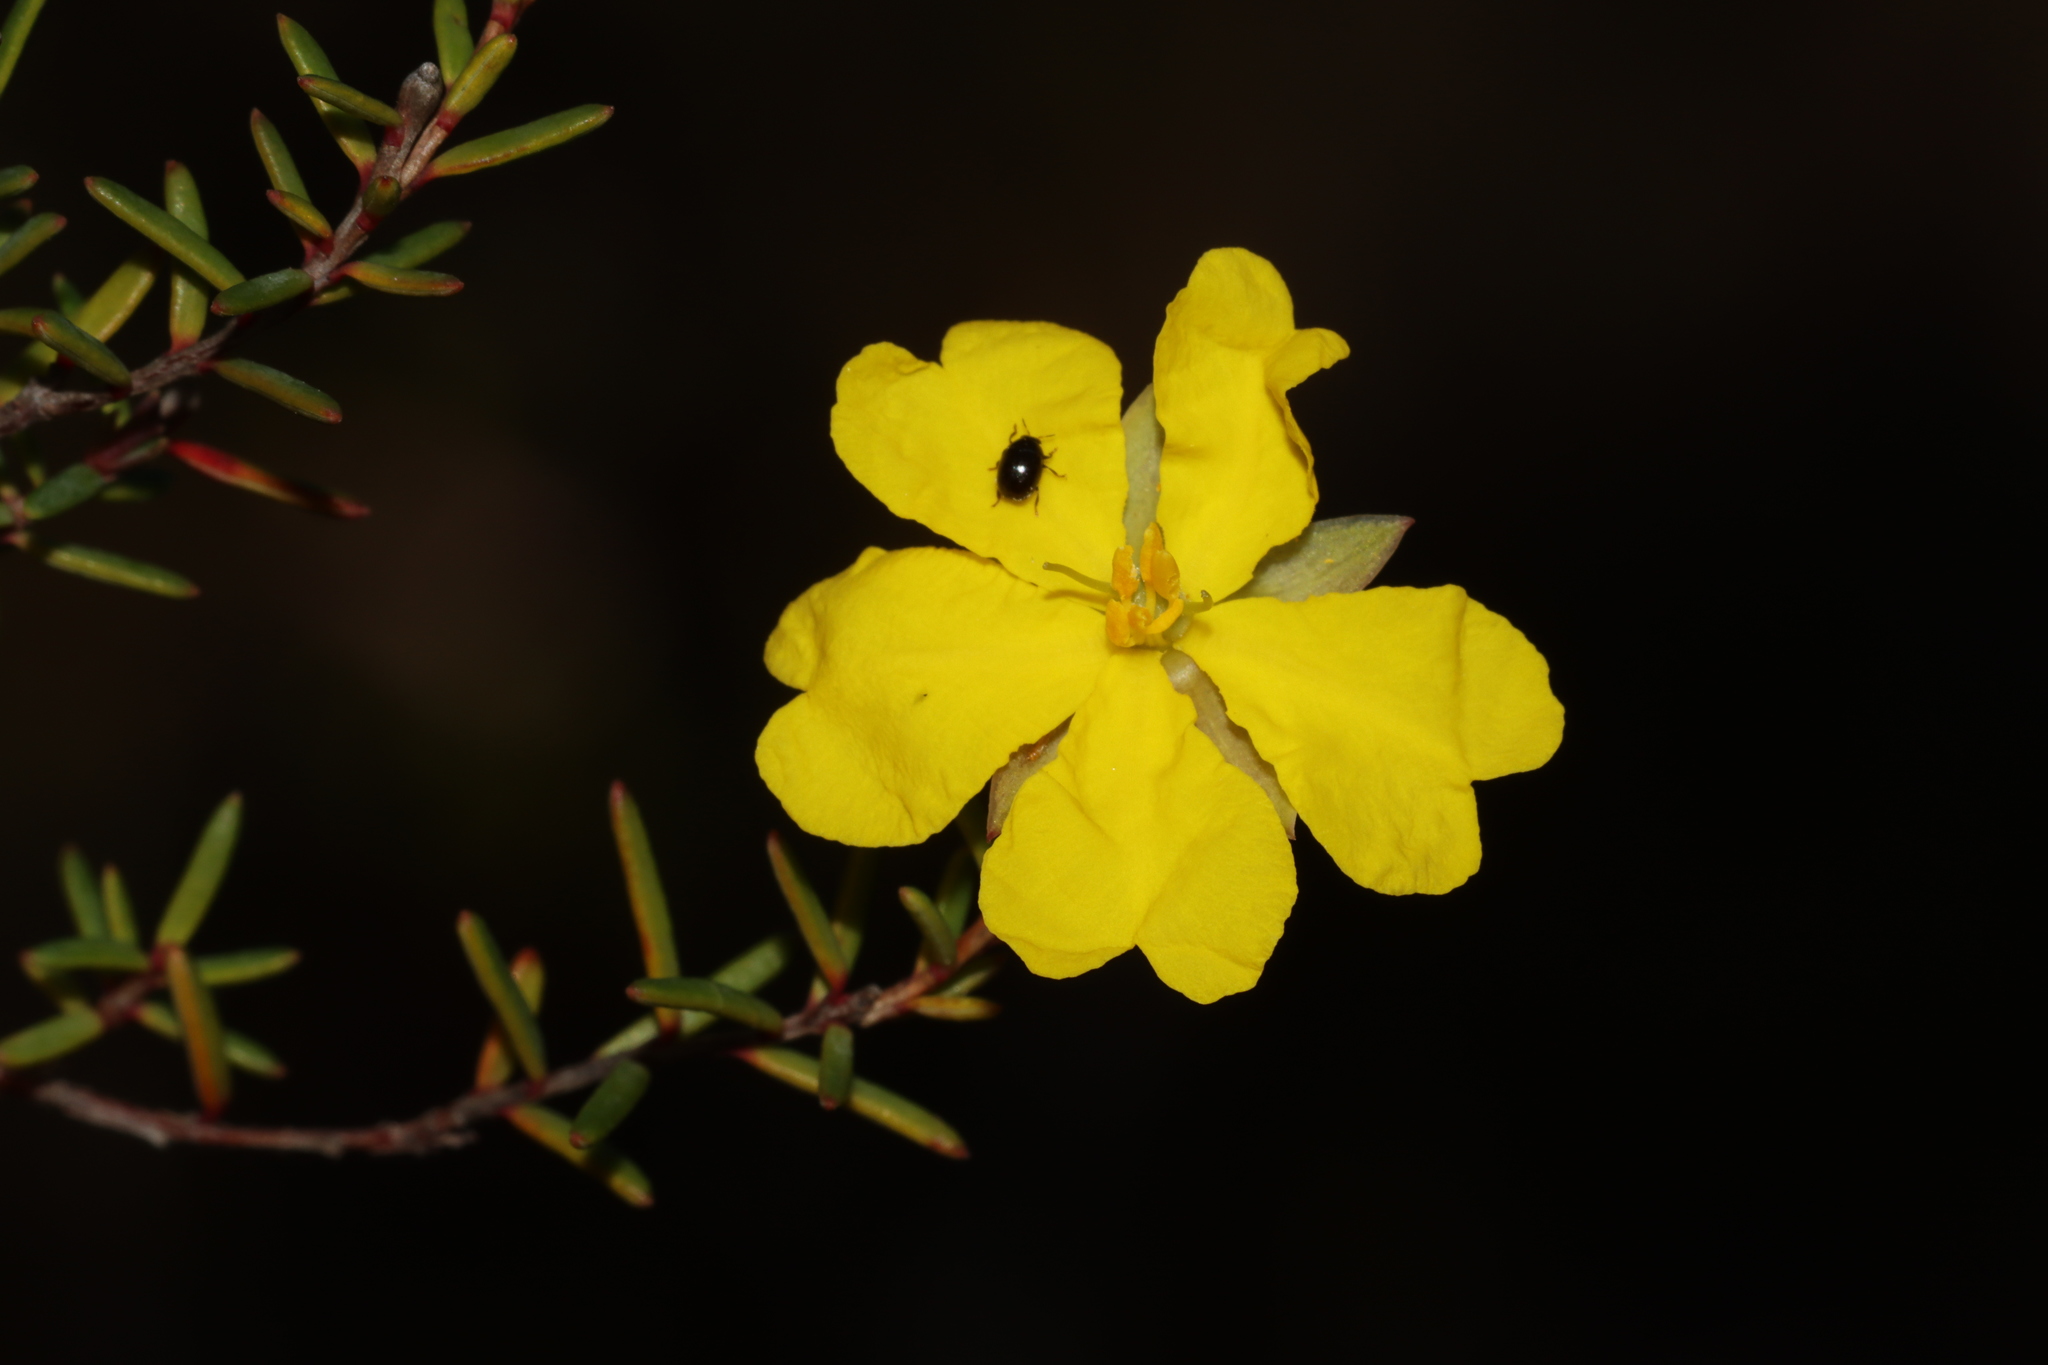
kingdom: Plantae
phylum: Tracheophyta
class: Magnoliopsida
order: Dilleniales
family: Dilleniaceae
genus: Hibbertia
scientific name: Hibbertia devitata
